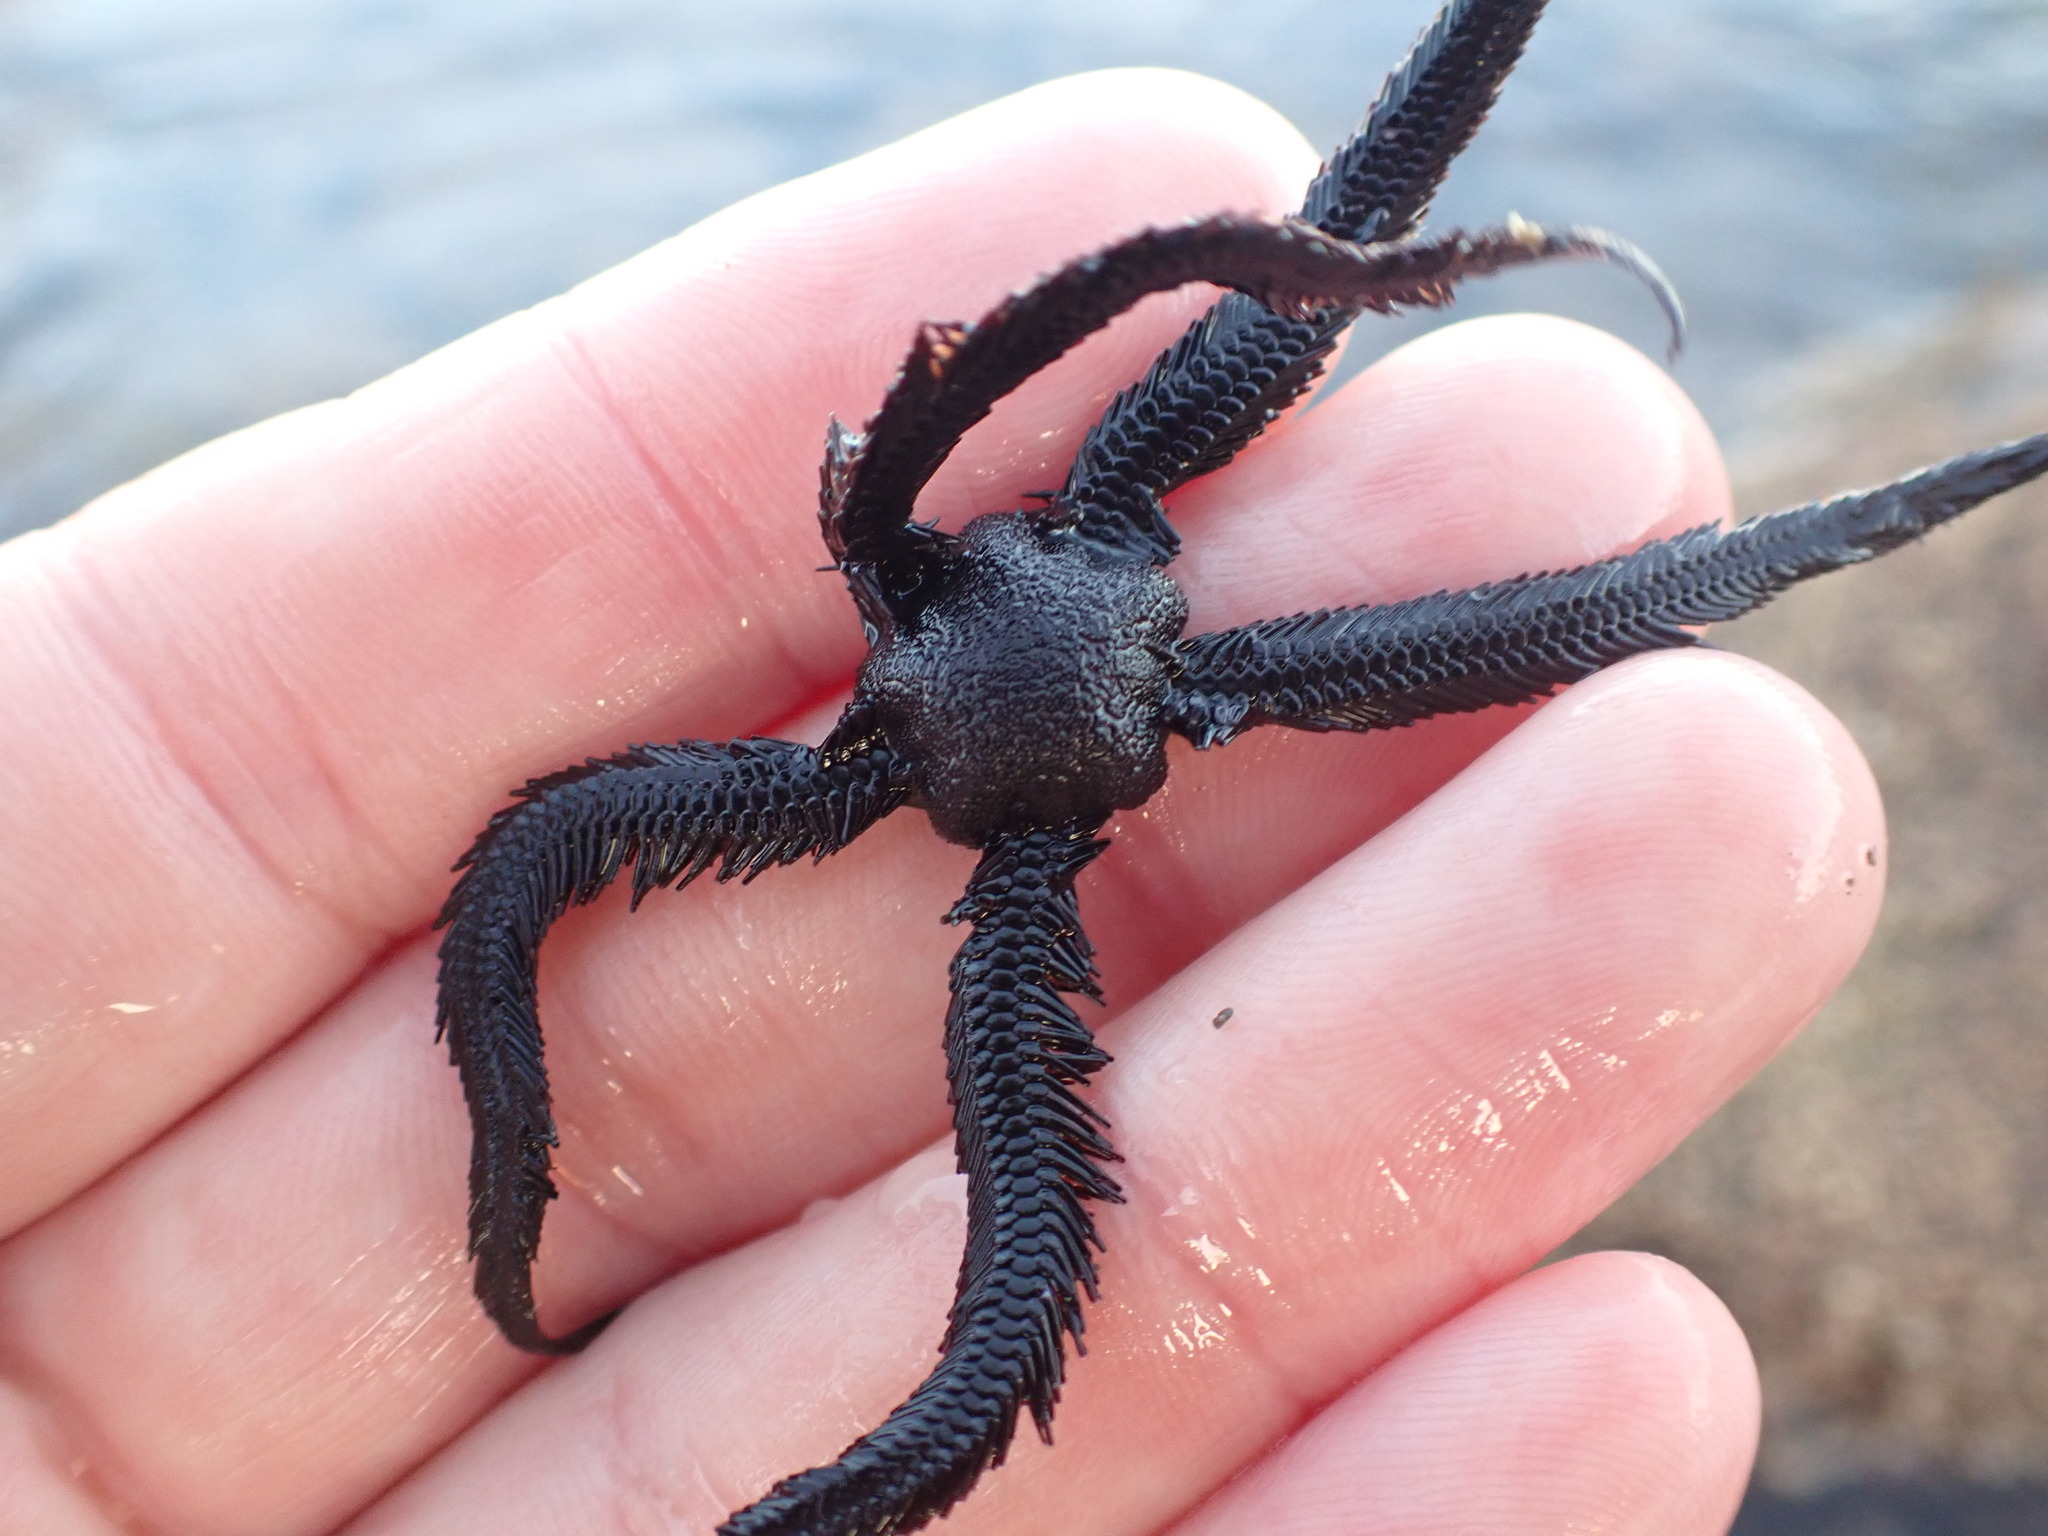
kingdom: Animalia
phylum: Echinodermata
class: Ophiuroidea
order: Ophiacanthida
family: Ophiopteridae
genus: Ophiopteris
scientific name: Ophiopteris antipodum
